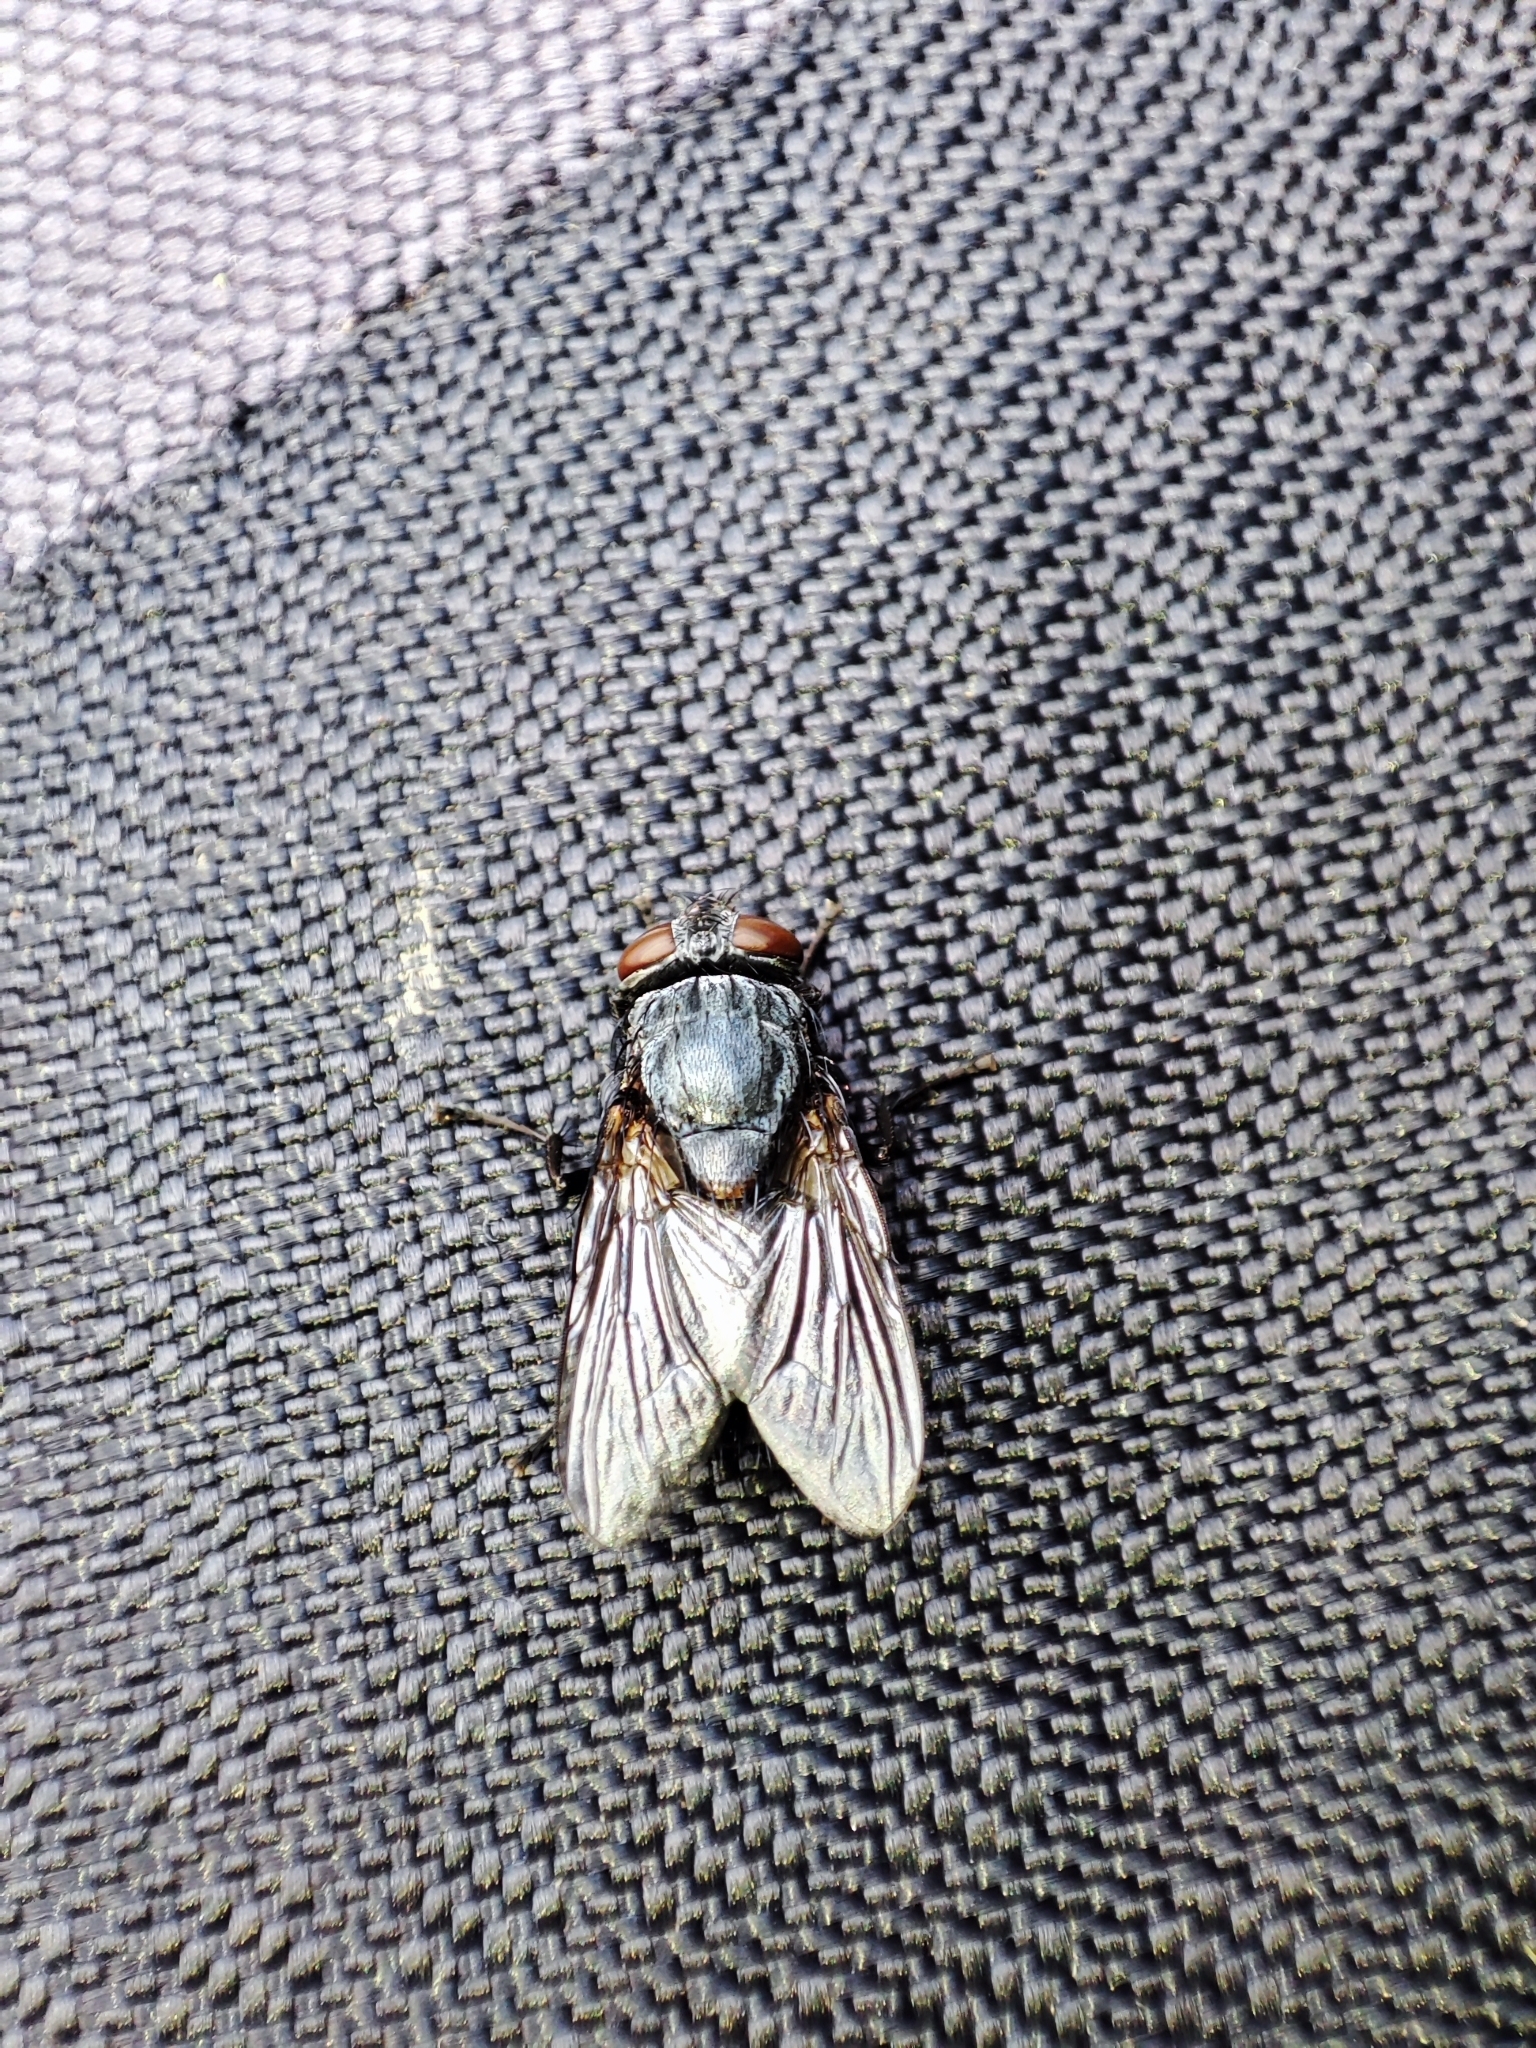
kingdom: Animalia
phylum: Arthropoda
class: Insecta
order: Diptera
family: Muscidae
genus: Muscina
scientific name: Muscina pascuorum
